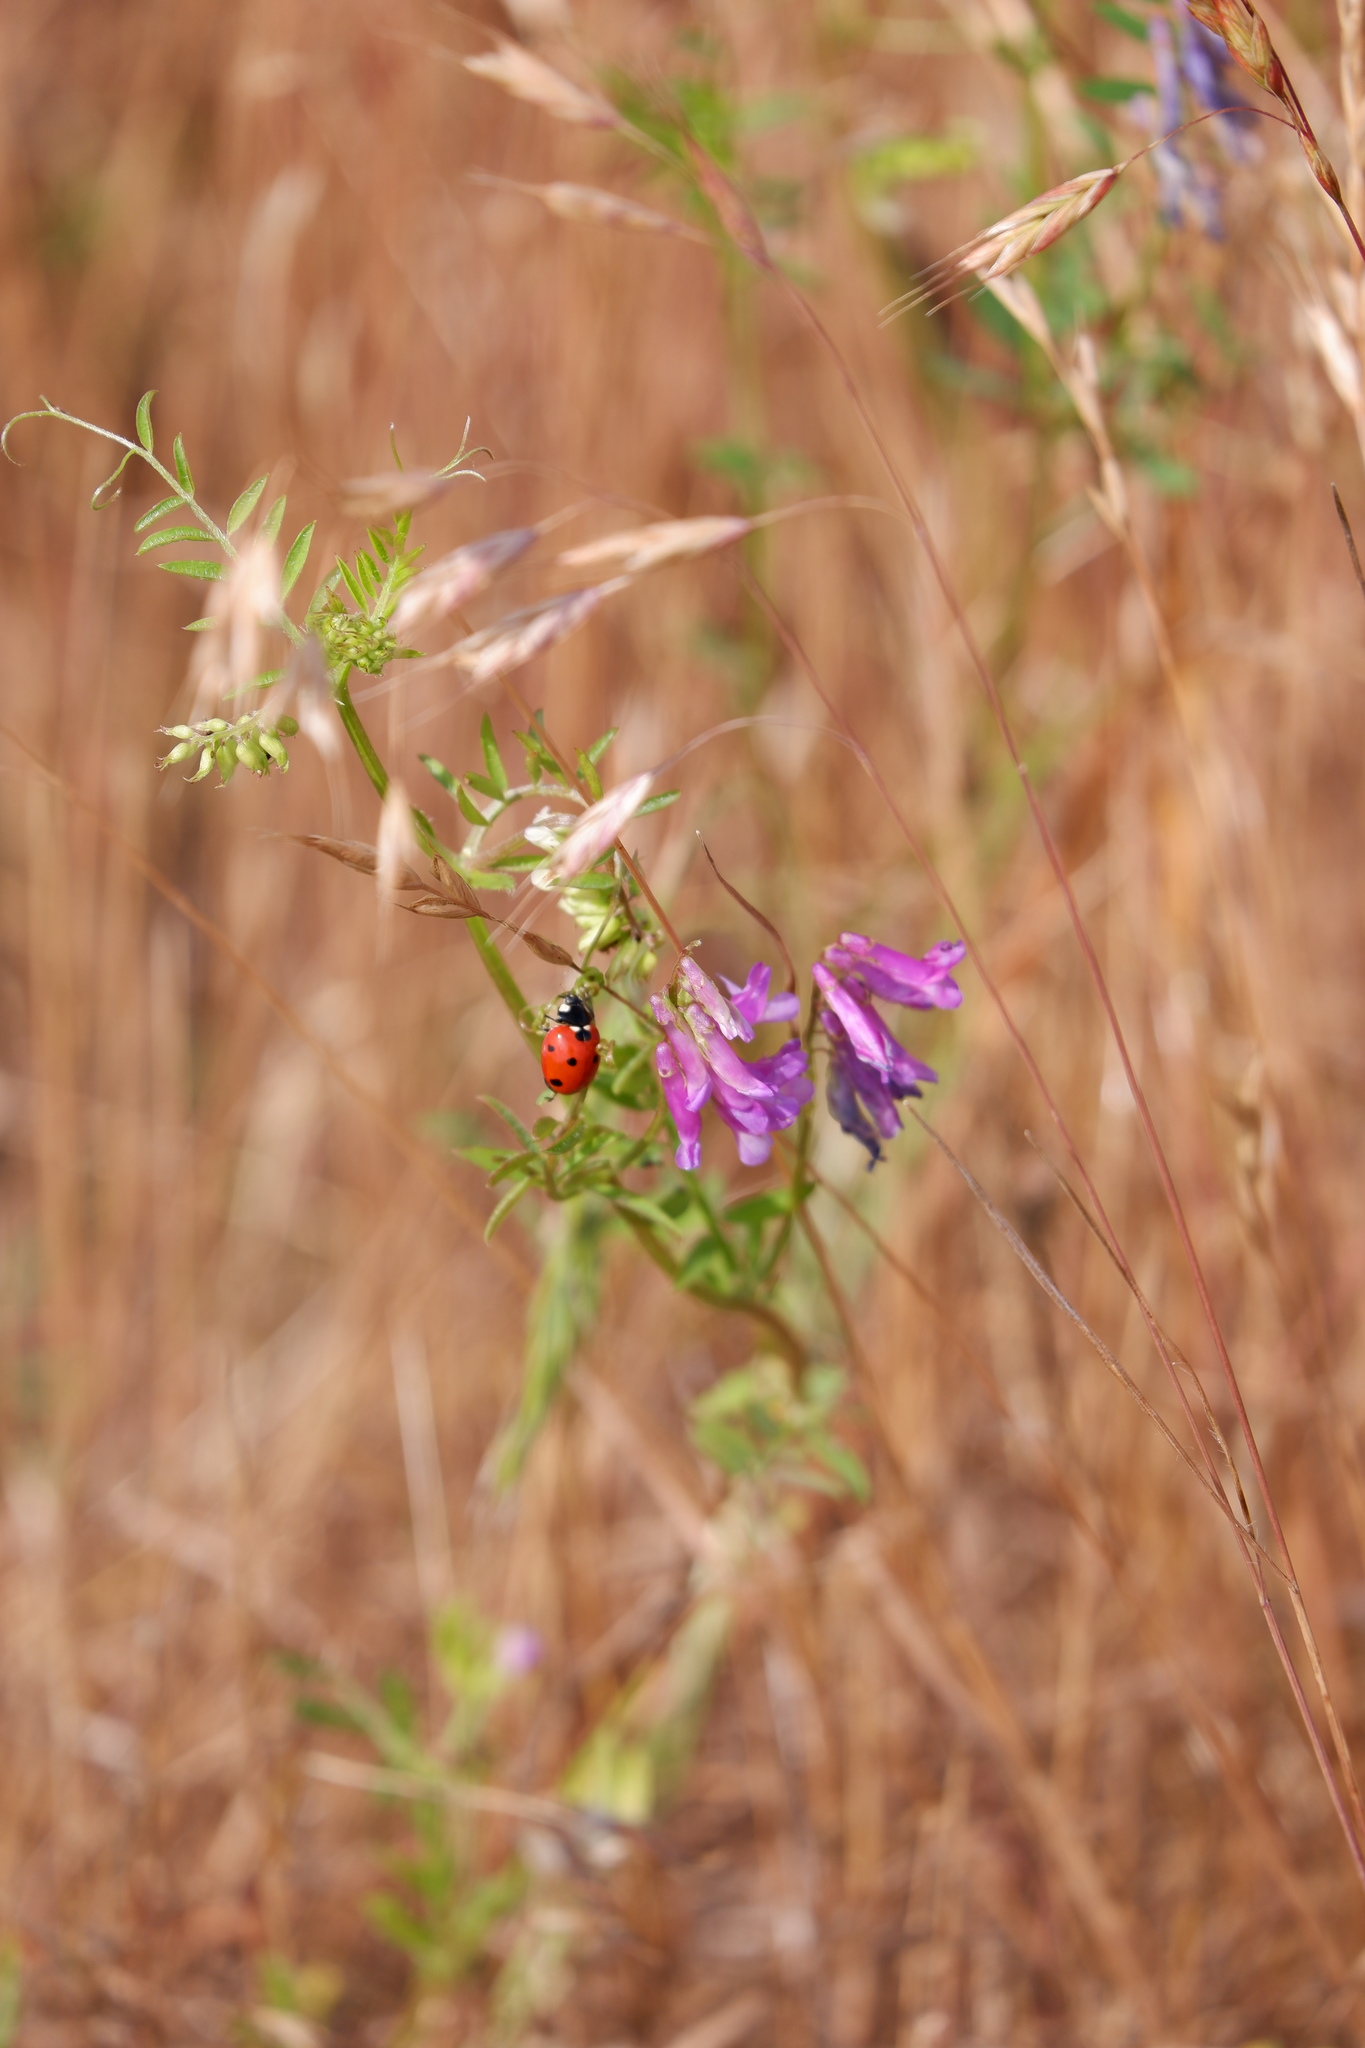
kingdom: Animalia
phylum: Arthropoda
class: Insecta
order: Coleoptera
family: Coccinellidae
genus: Coccinella
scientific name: Coccinella septempunctata
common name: Sevenspotted lady beetle
